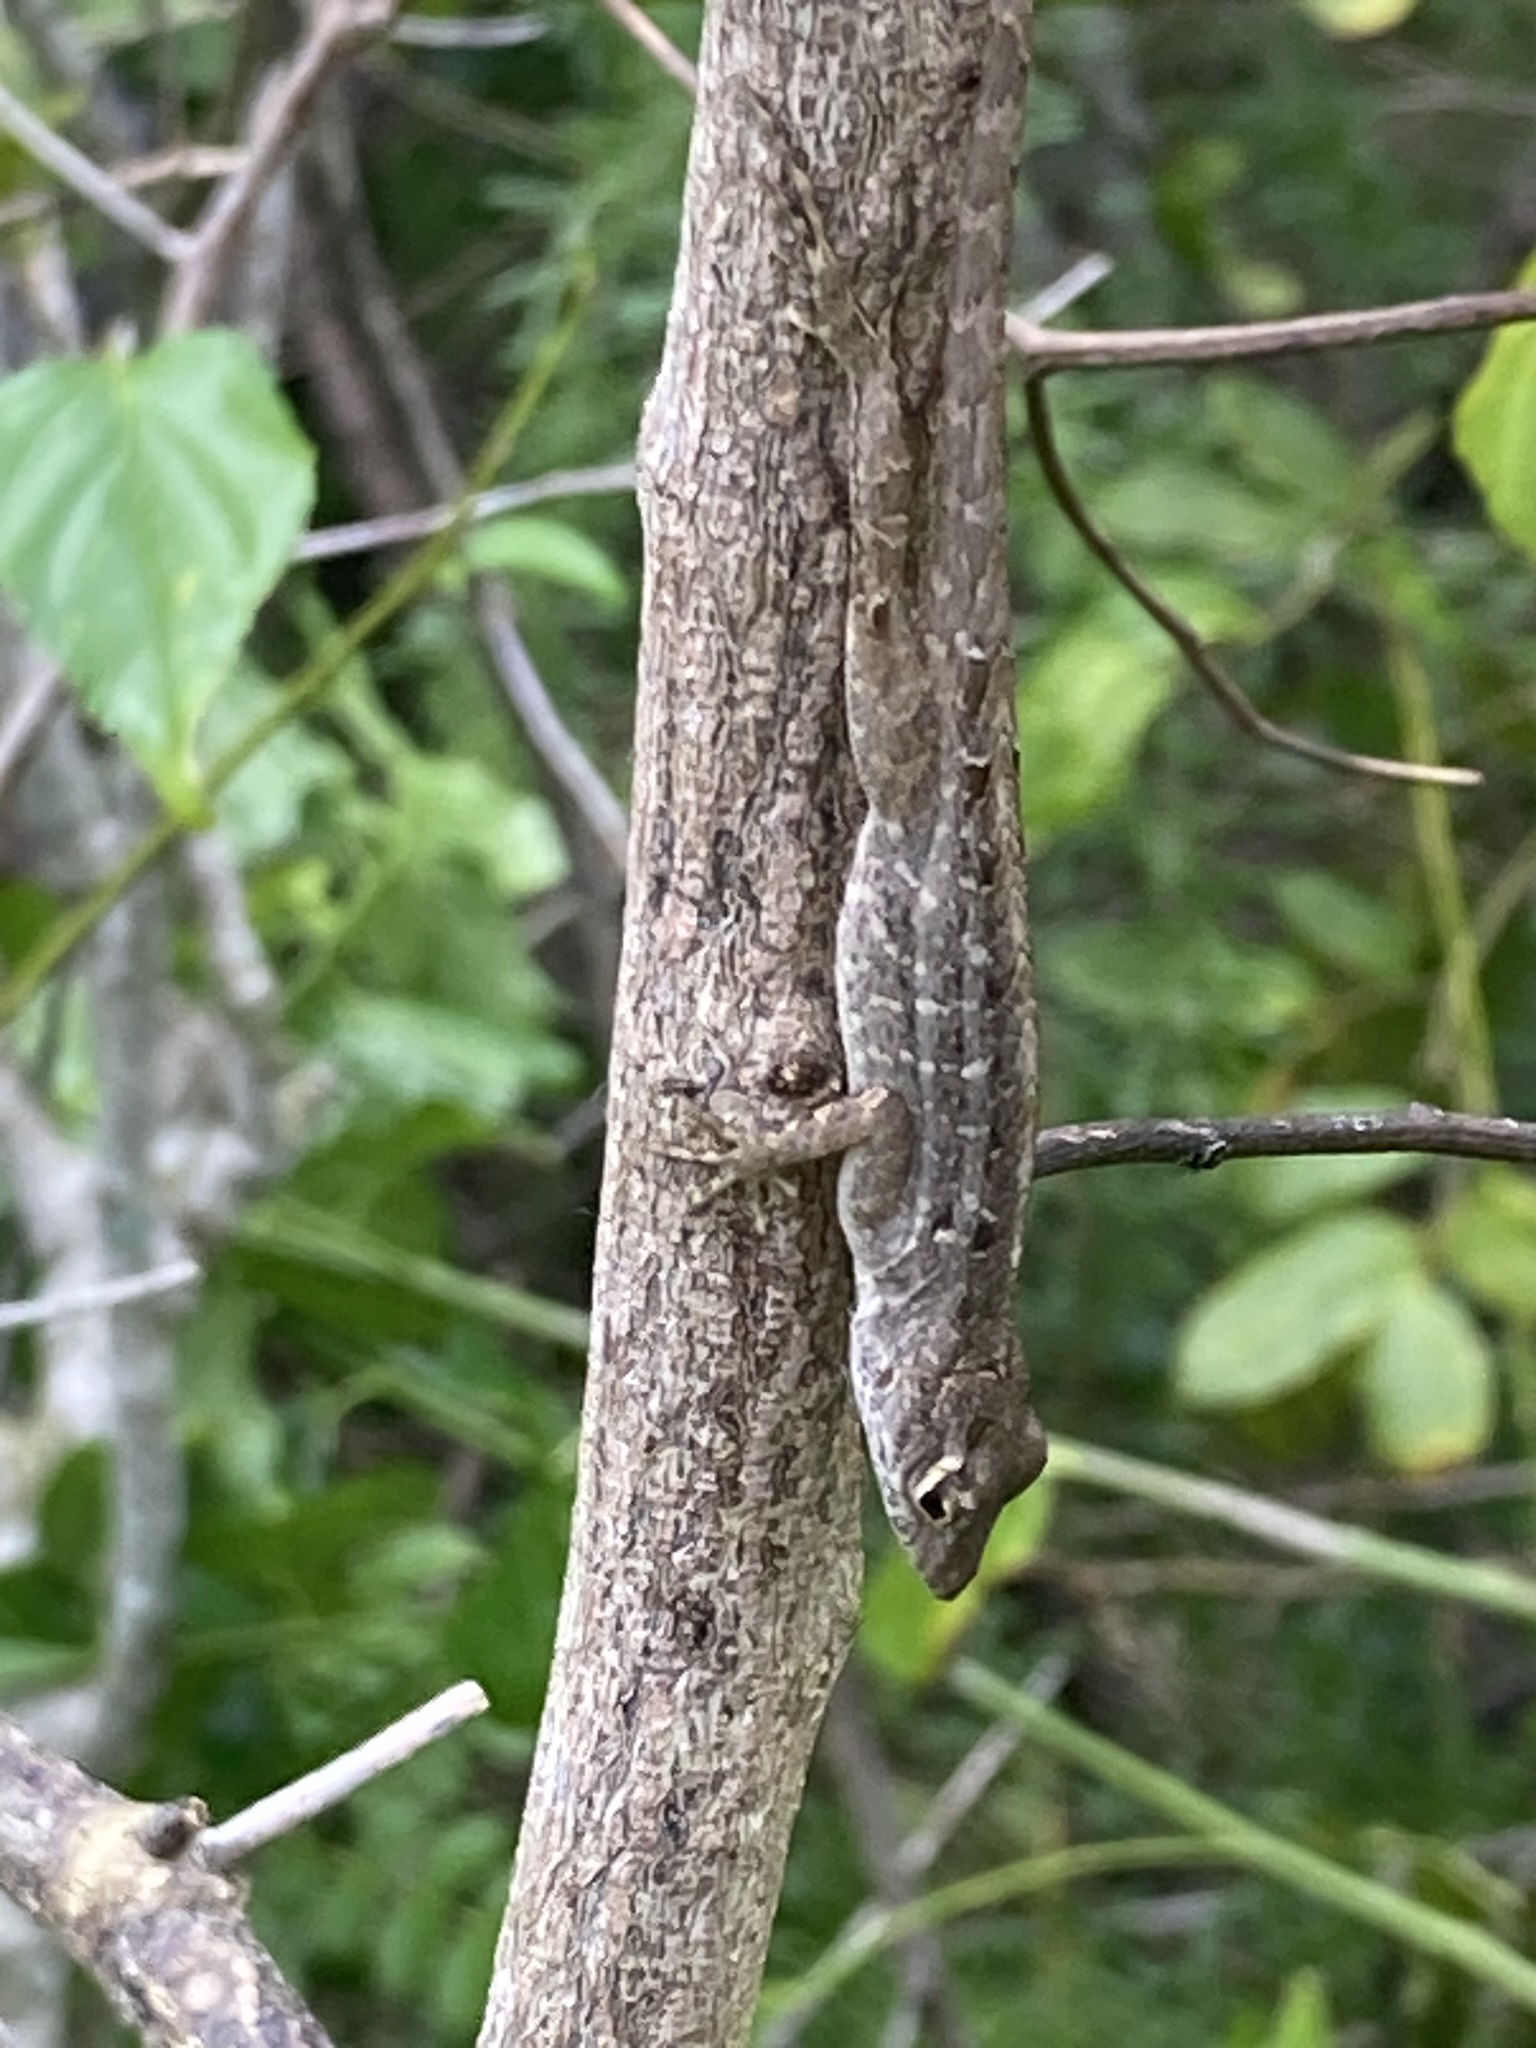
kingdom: Animalia
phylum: Chordata
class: Squamata
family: Dactyloidae
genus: Anolis
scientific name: Anolis sagrei
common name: Brown anole
